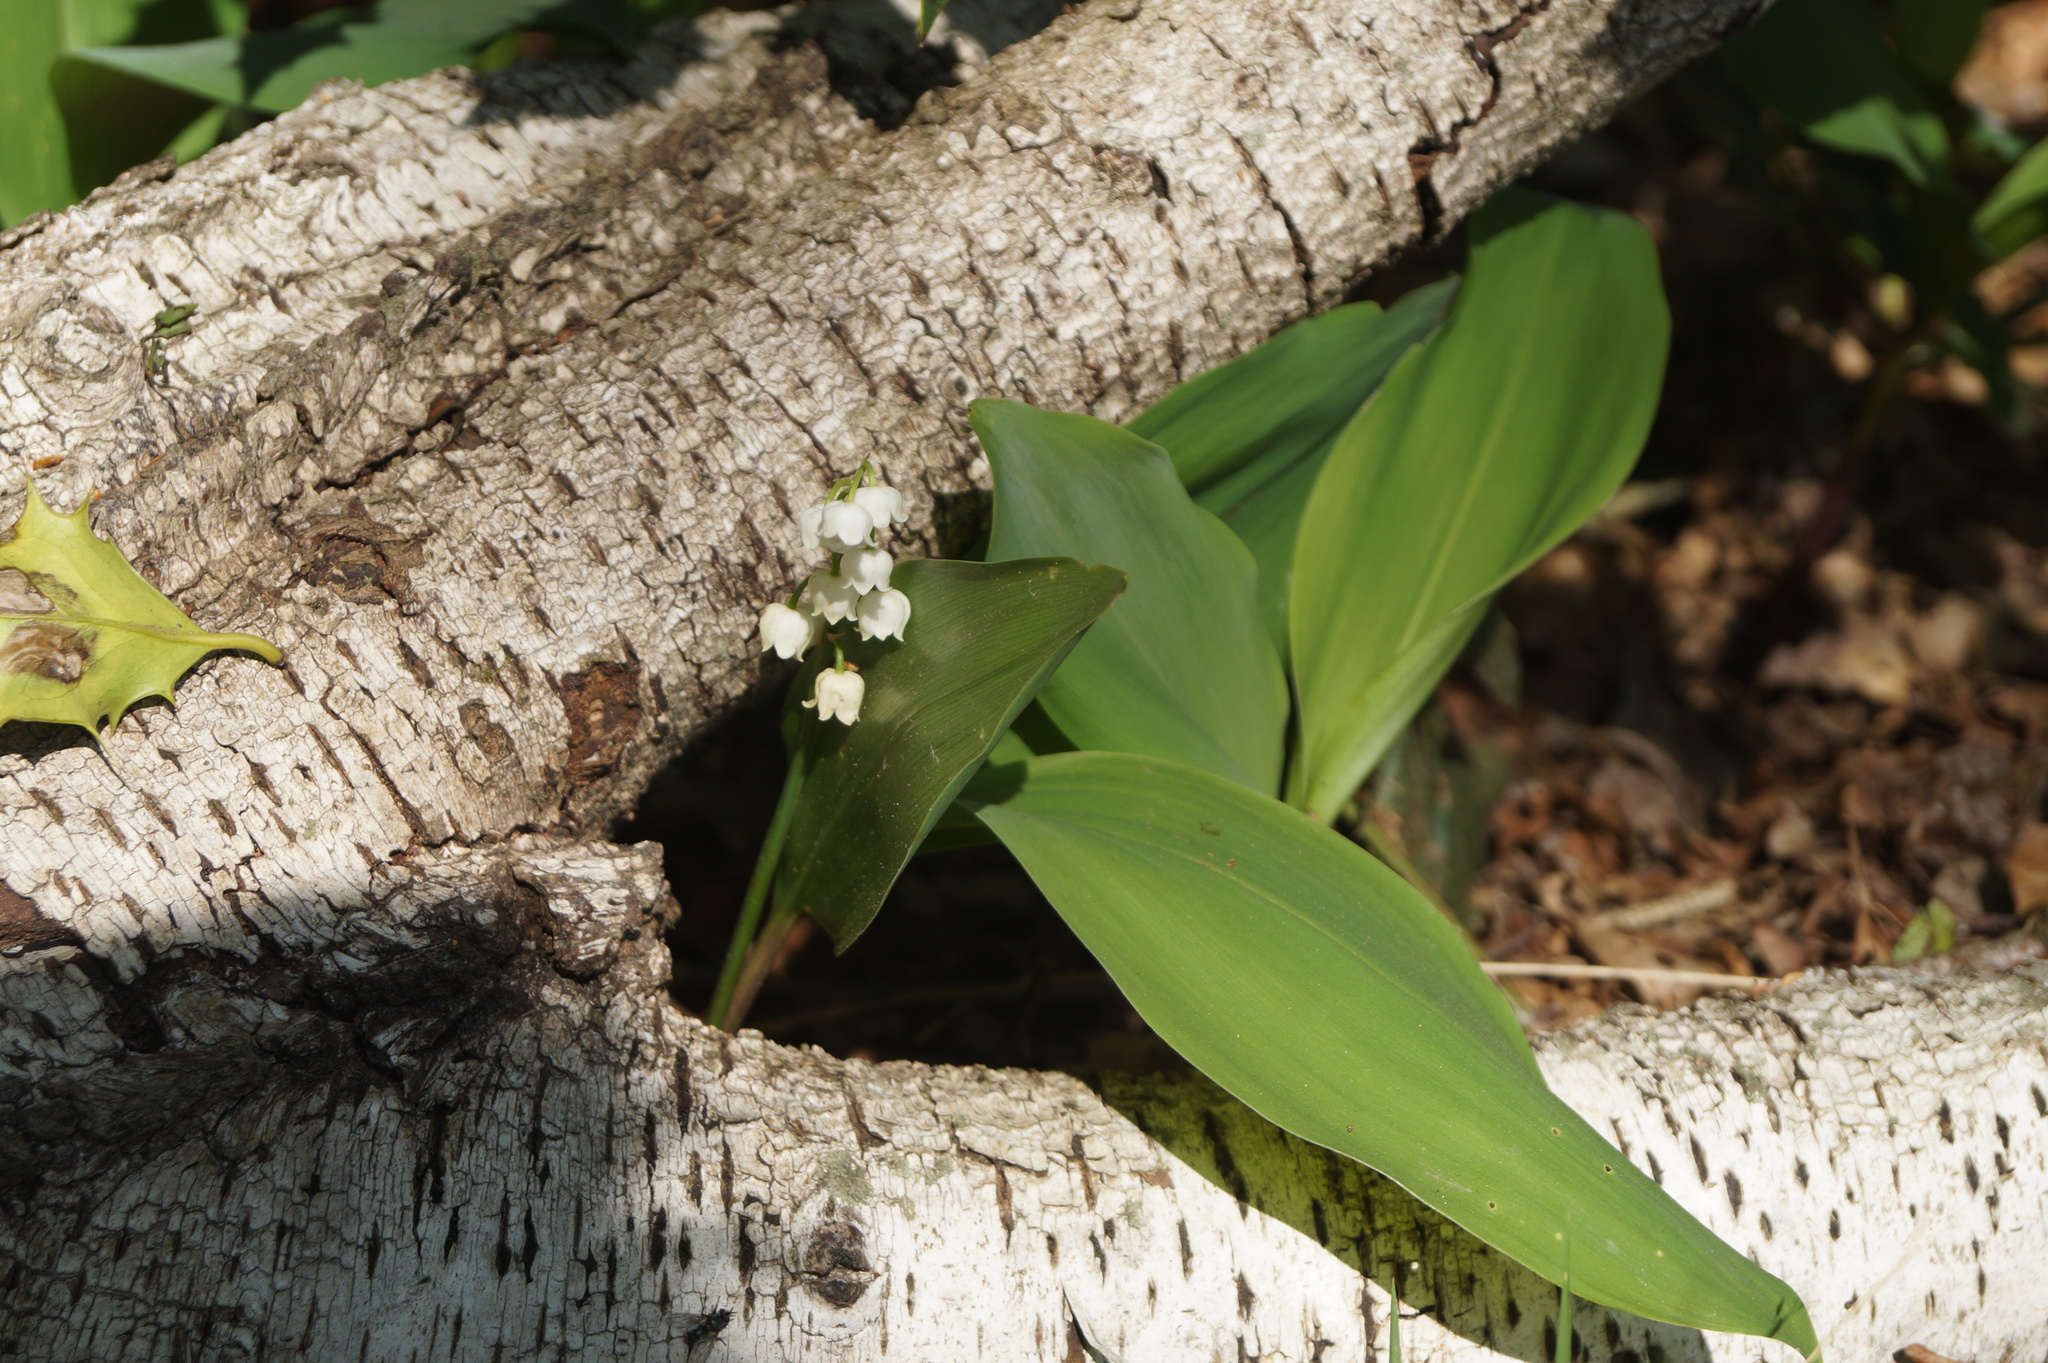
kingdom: Plantae
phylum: Tracheophyta
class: Liliopsida
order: Asparagales
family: Asparagaceae
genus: Convallaria
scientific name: Convallaria majalis
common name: Lily-of-the-valley
